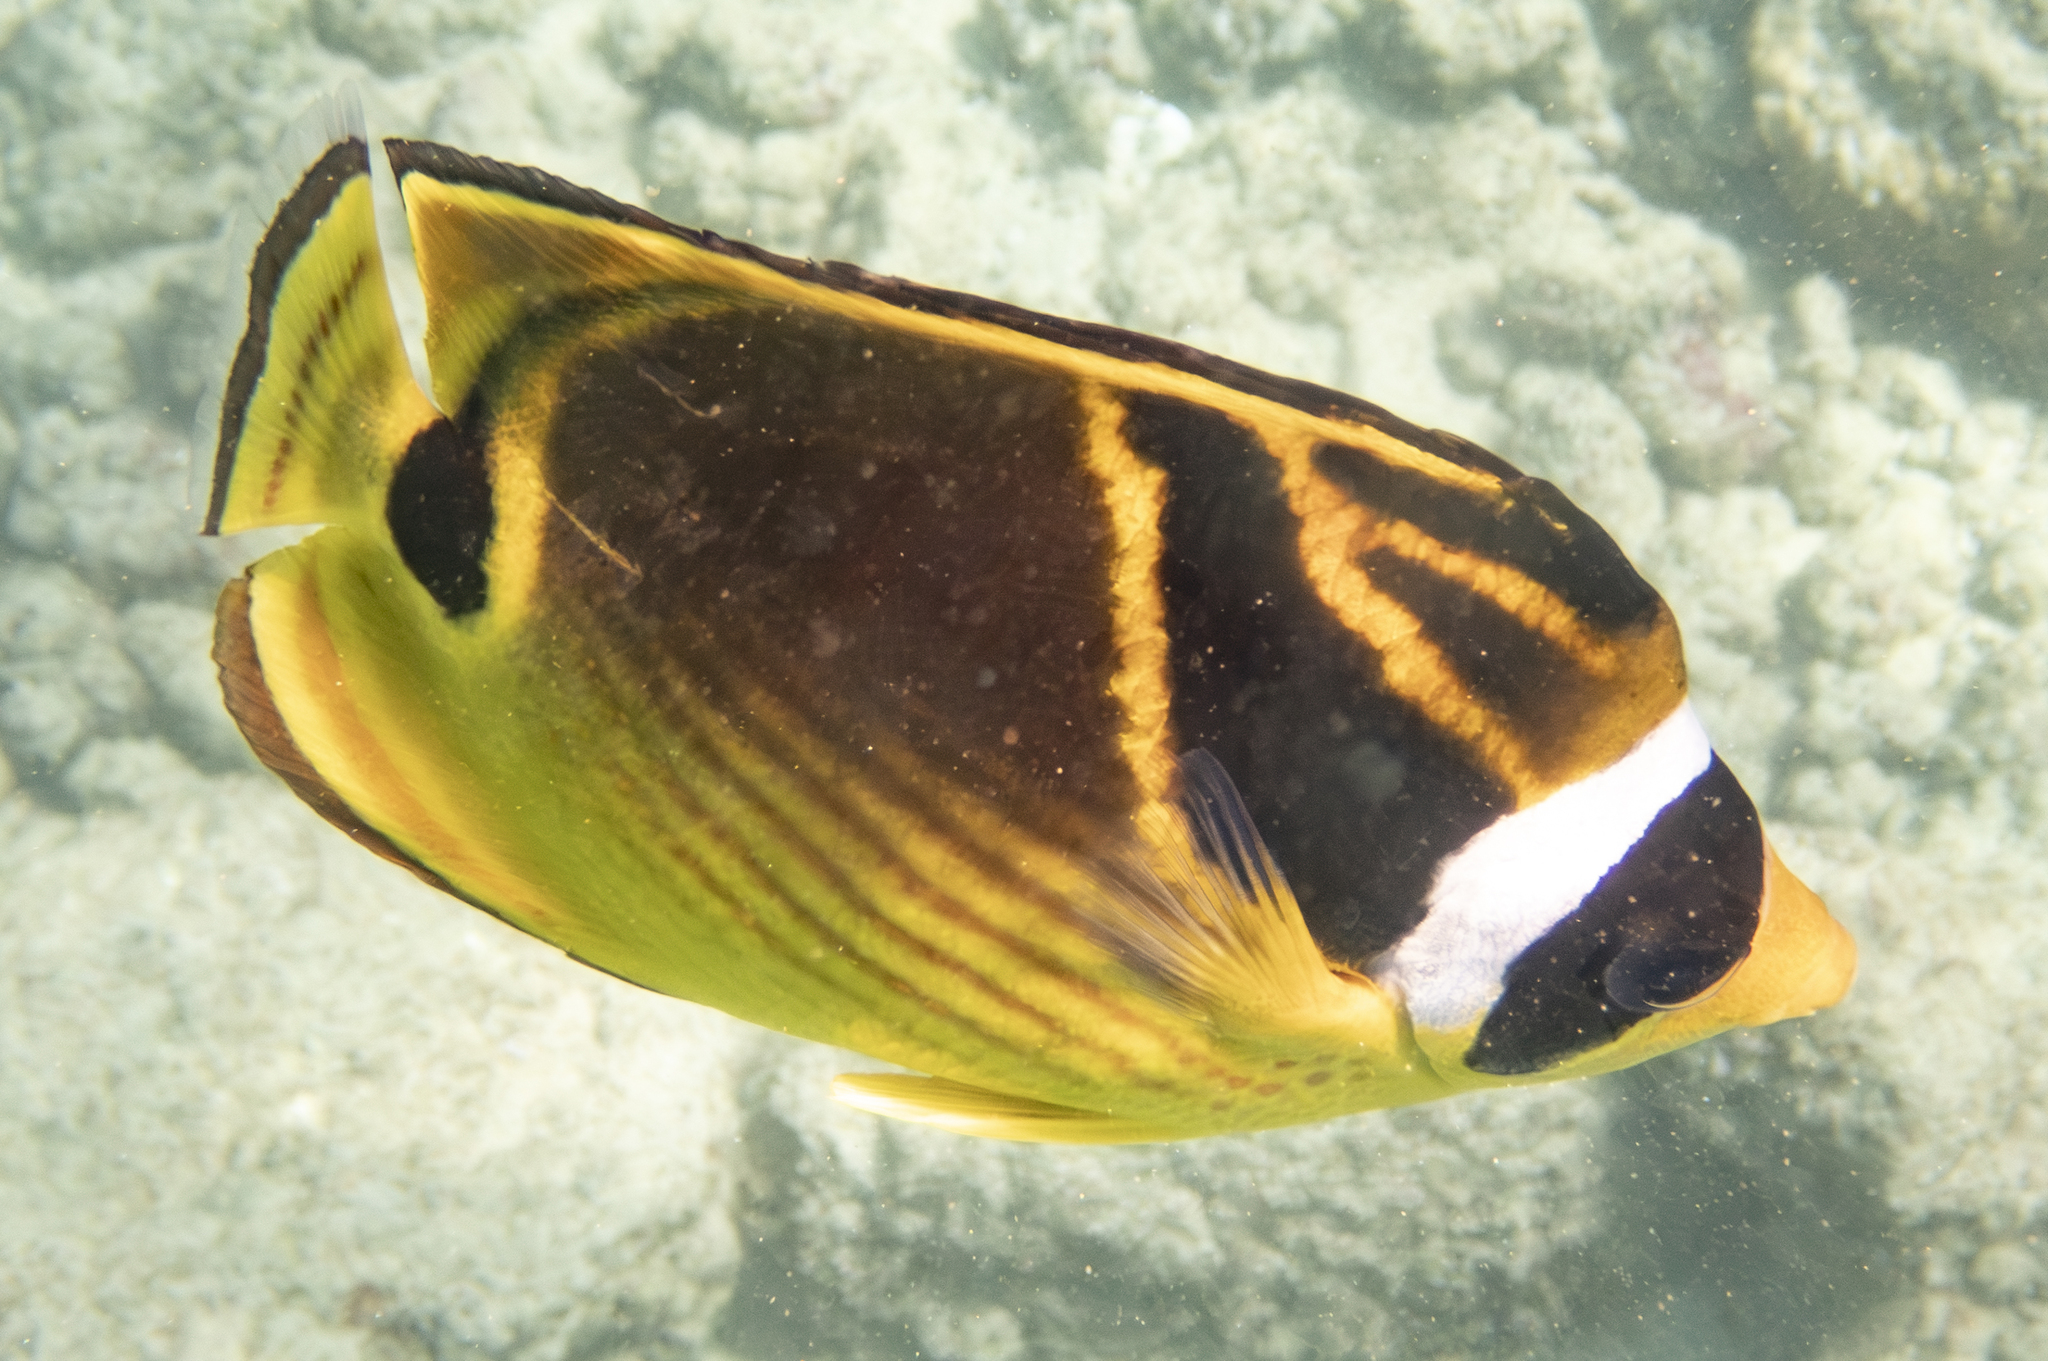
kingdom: Animalia
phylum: Chordata
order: Perciformes
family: Chaetodontidae
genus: Chaetodon
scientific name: Chaetodon lunula
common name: Raccoon butterflyfish
